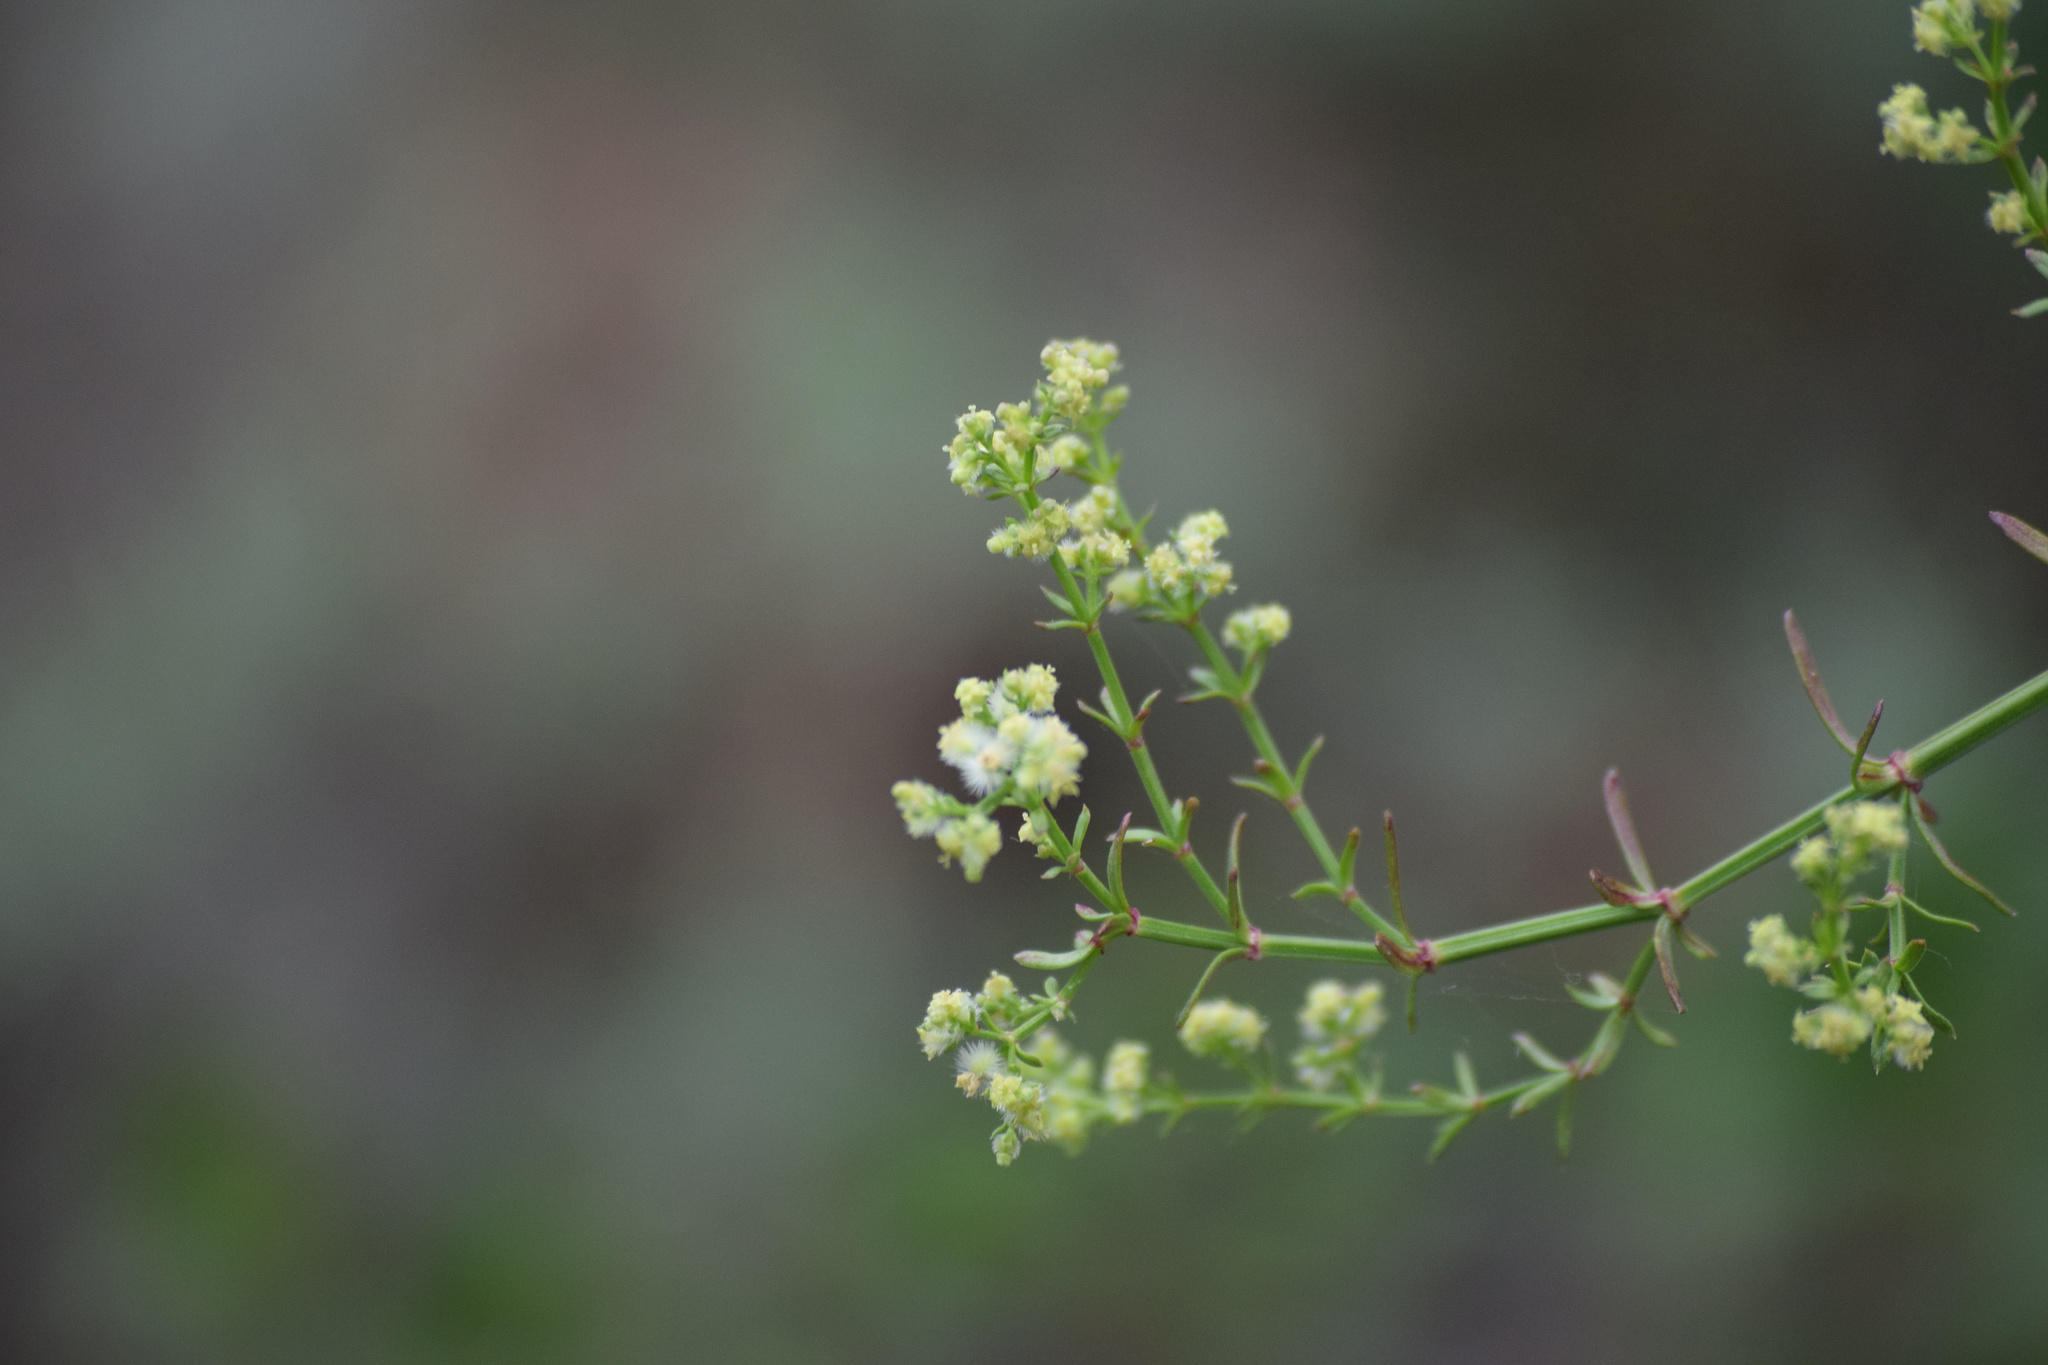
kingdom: Plantae
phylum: Tracheophyta
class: Magnoliopsida
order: Gentianales
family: Rubiaceae
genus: Galium
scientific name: Galium angustifolium
